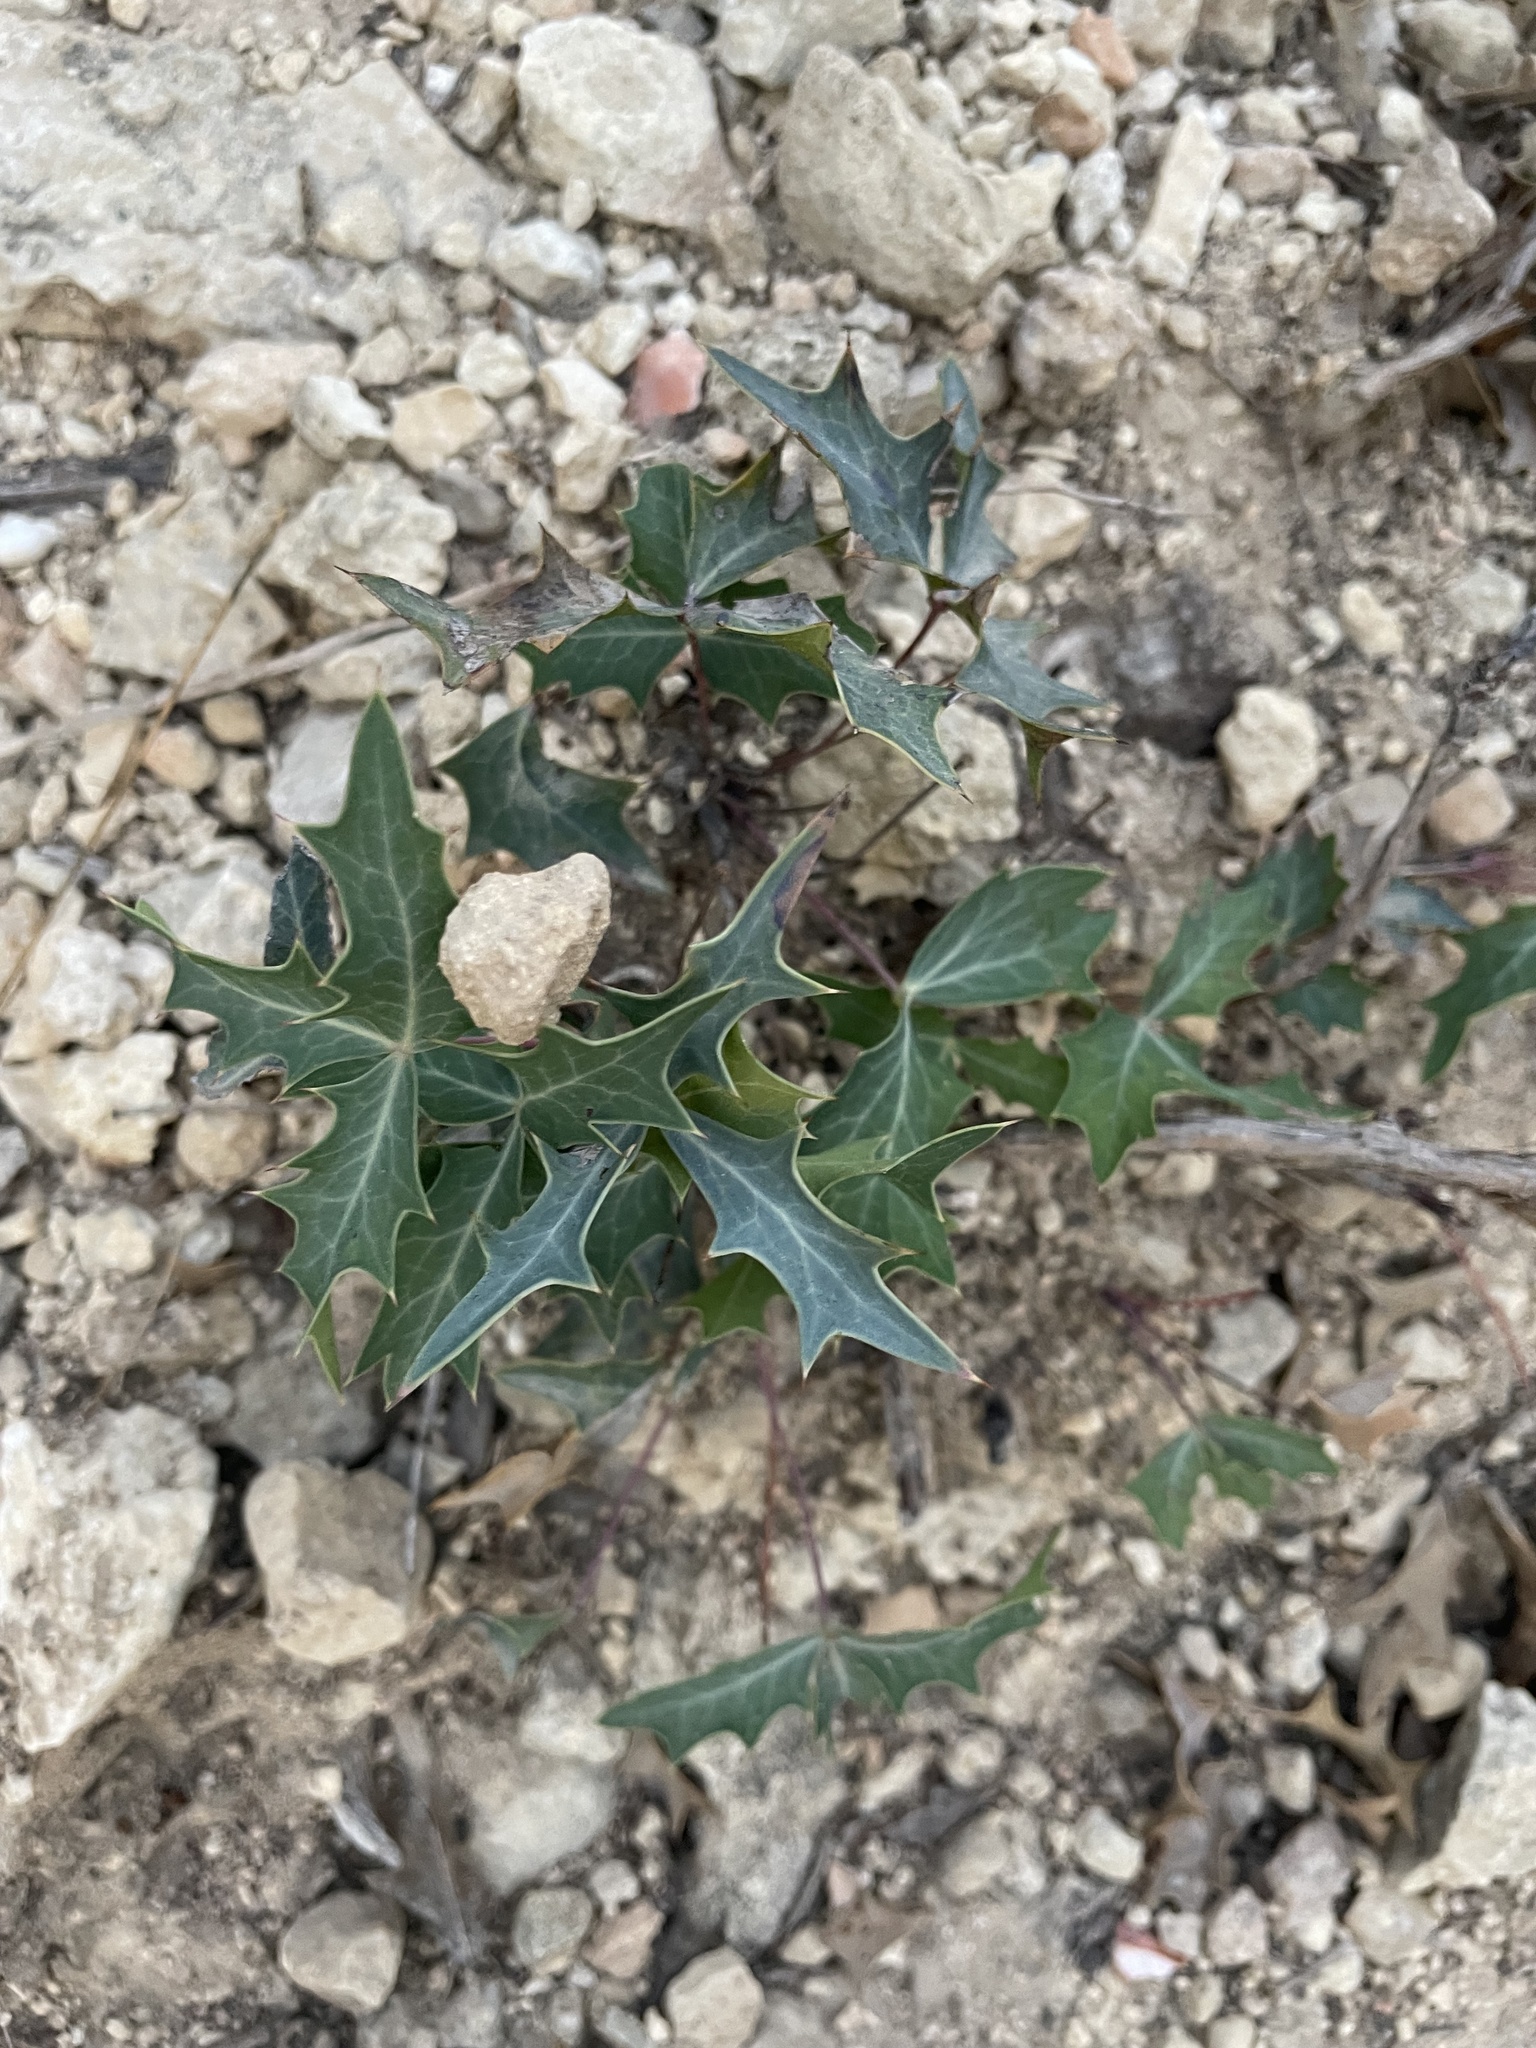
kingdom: Plantae
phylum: Tracheophyta
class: Magnoliopsida
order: Ranunculales
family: Berberidaceae
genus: Alloberberis
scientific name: Alloberberis trifoliolata
